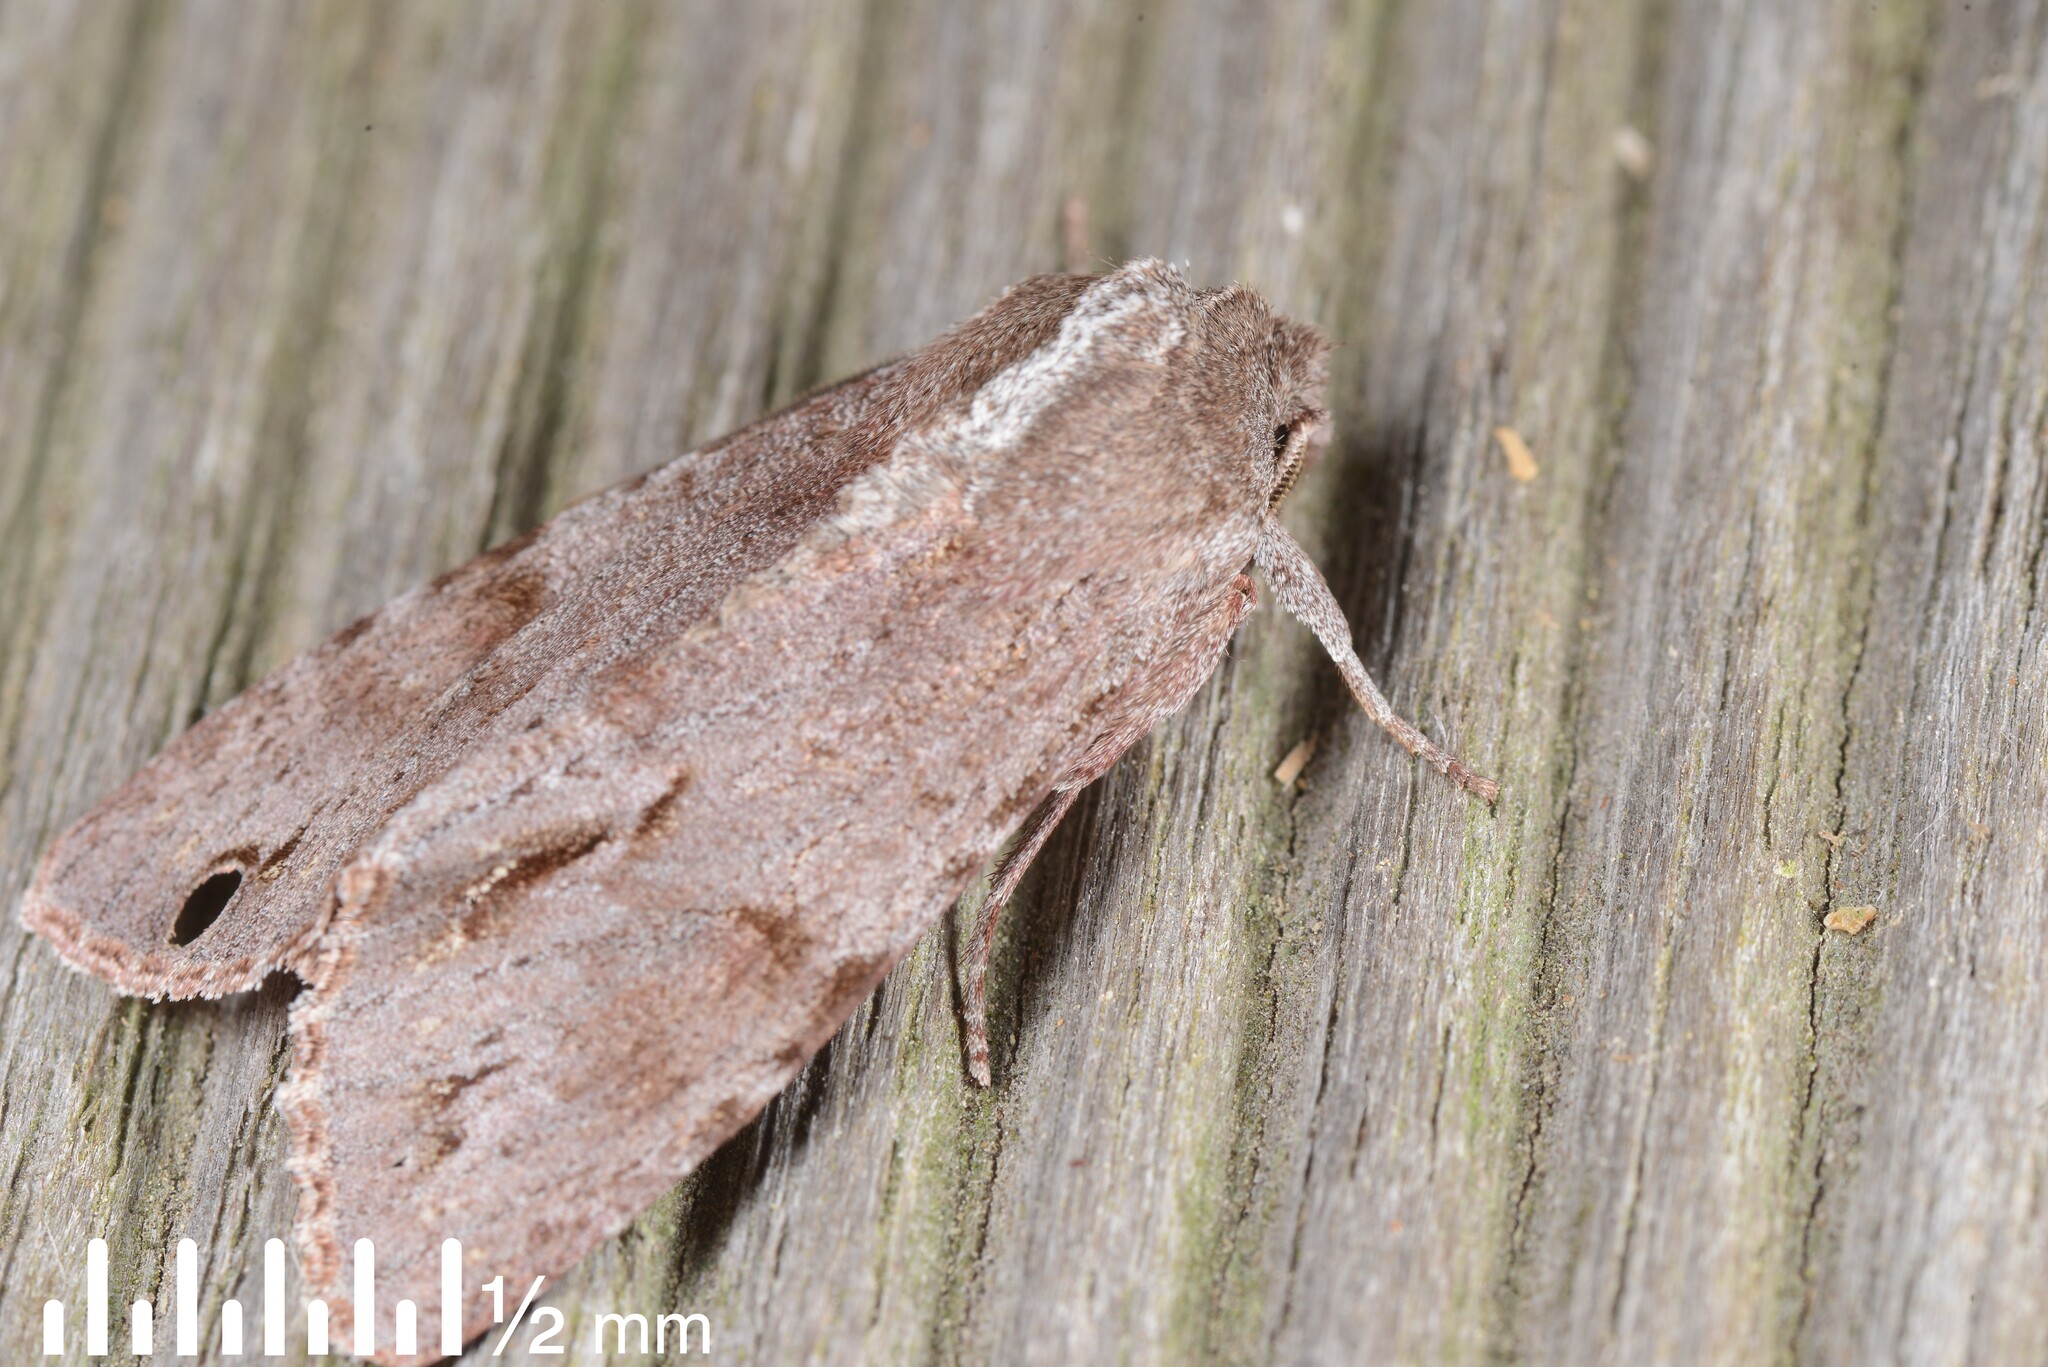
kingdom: Animalia
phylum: Arthropoda
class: Insecta
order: Lepidoptera
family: Noctuidae
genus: Ichneutica
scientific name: Ichneutica
